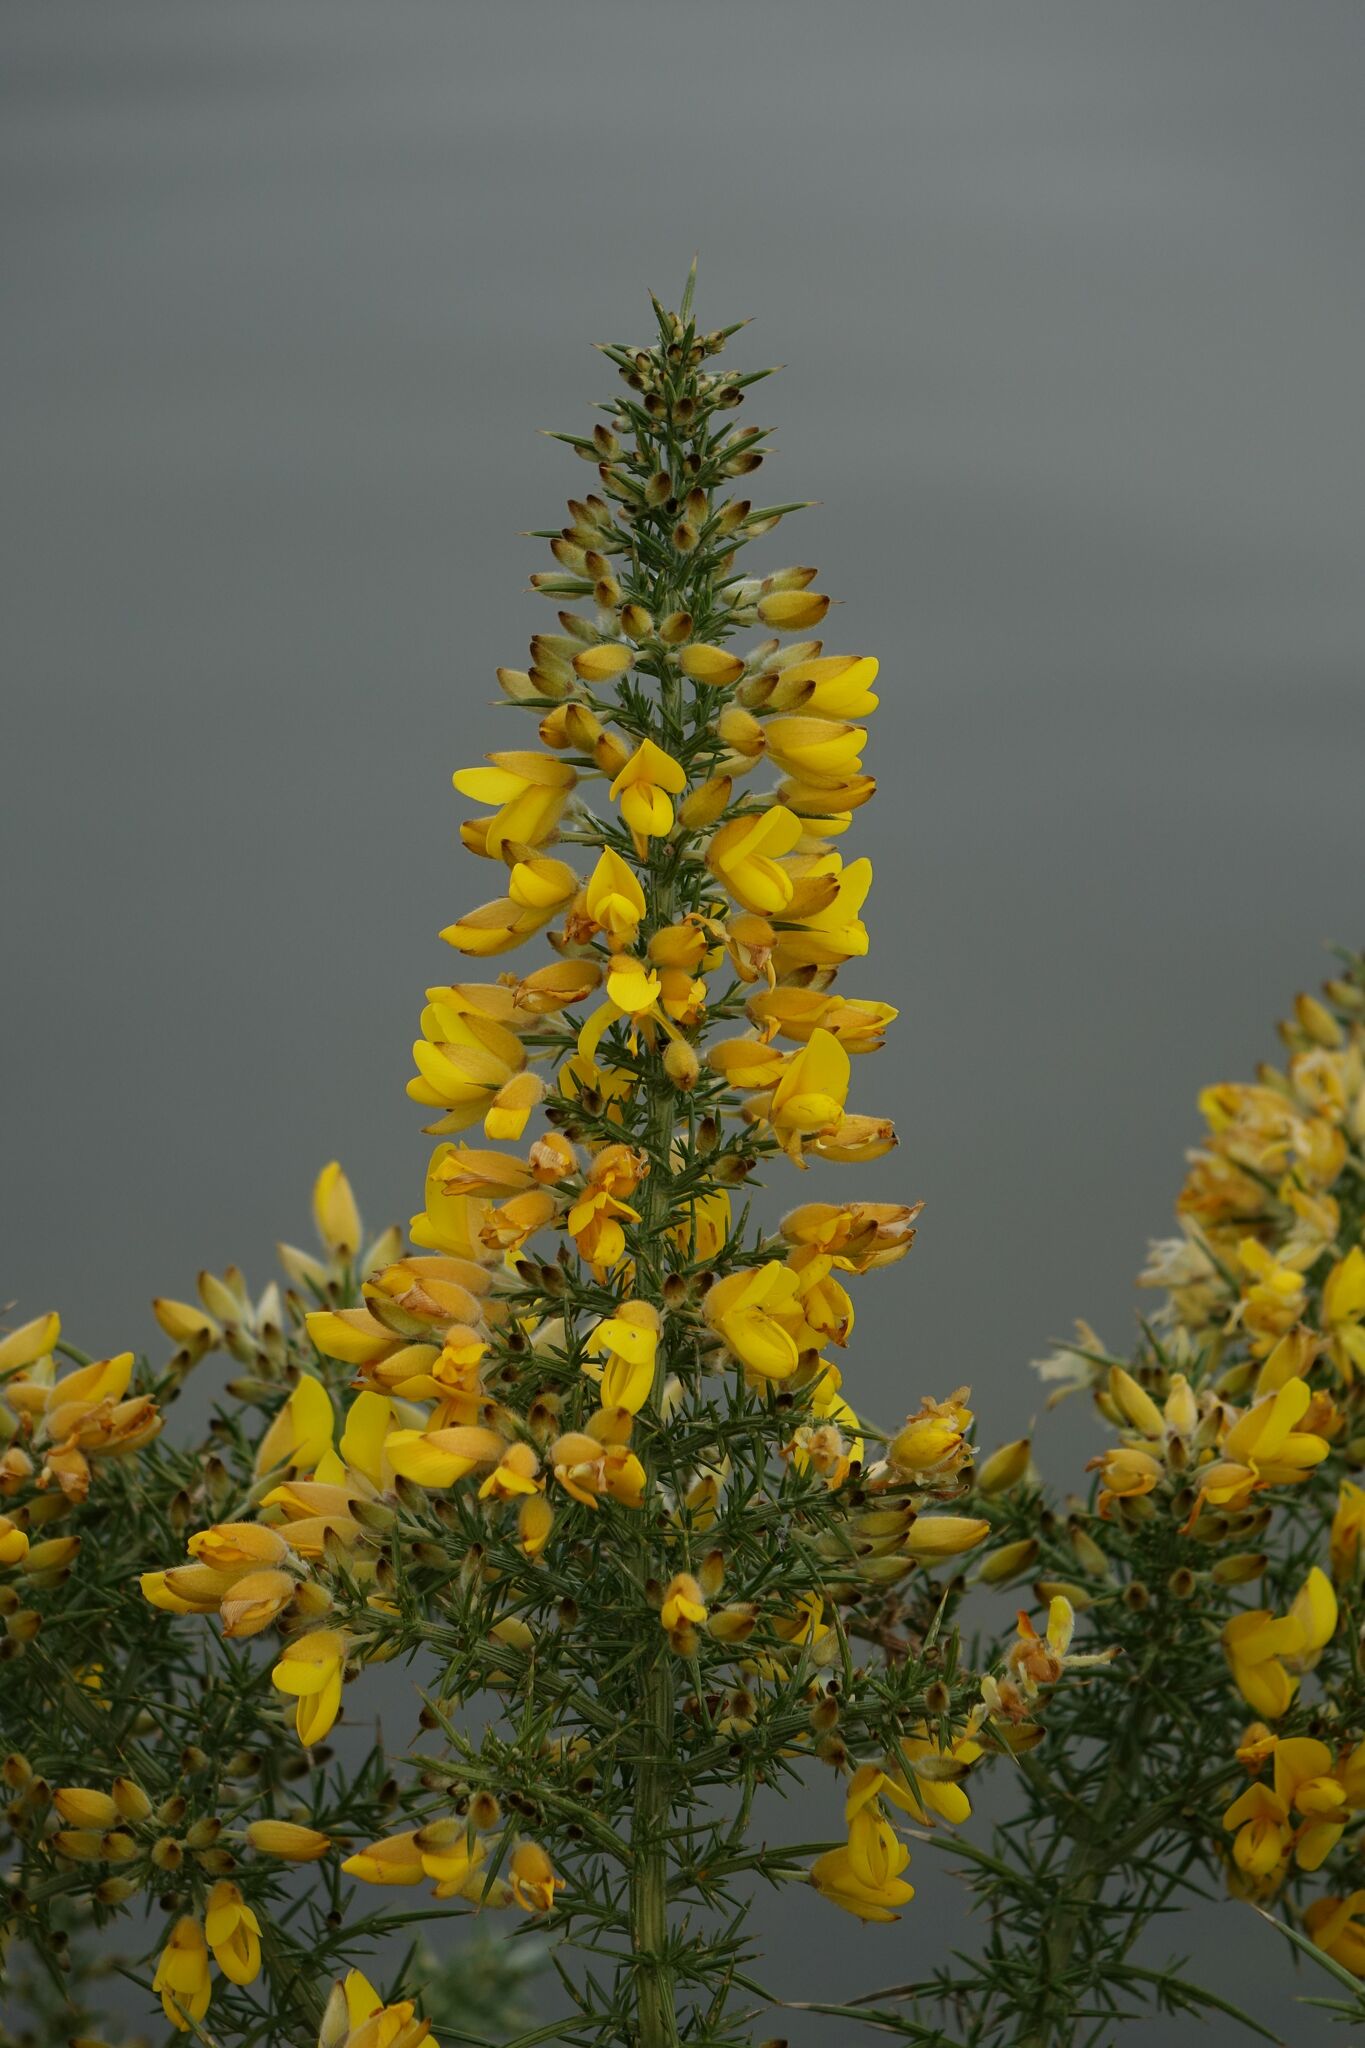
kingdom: Plantae
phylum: Tracheophyta
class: Magnoliopsida
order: Fabales
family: Fabaceae
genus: Ulex
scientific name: Ulex europaeus
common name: Common gorse
